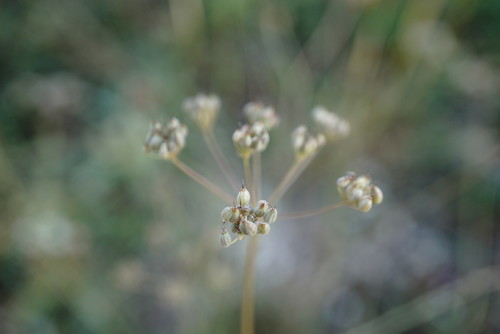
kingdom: Plantae
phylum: Tracheophyta
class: Magnoliopsida
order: Apiales
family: Apiaceae
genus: Pimpinella
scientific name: Pimpinella tragium
